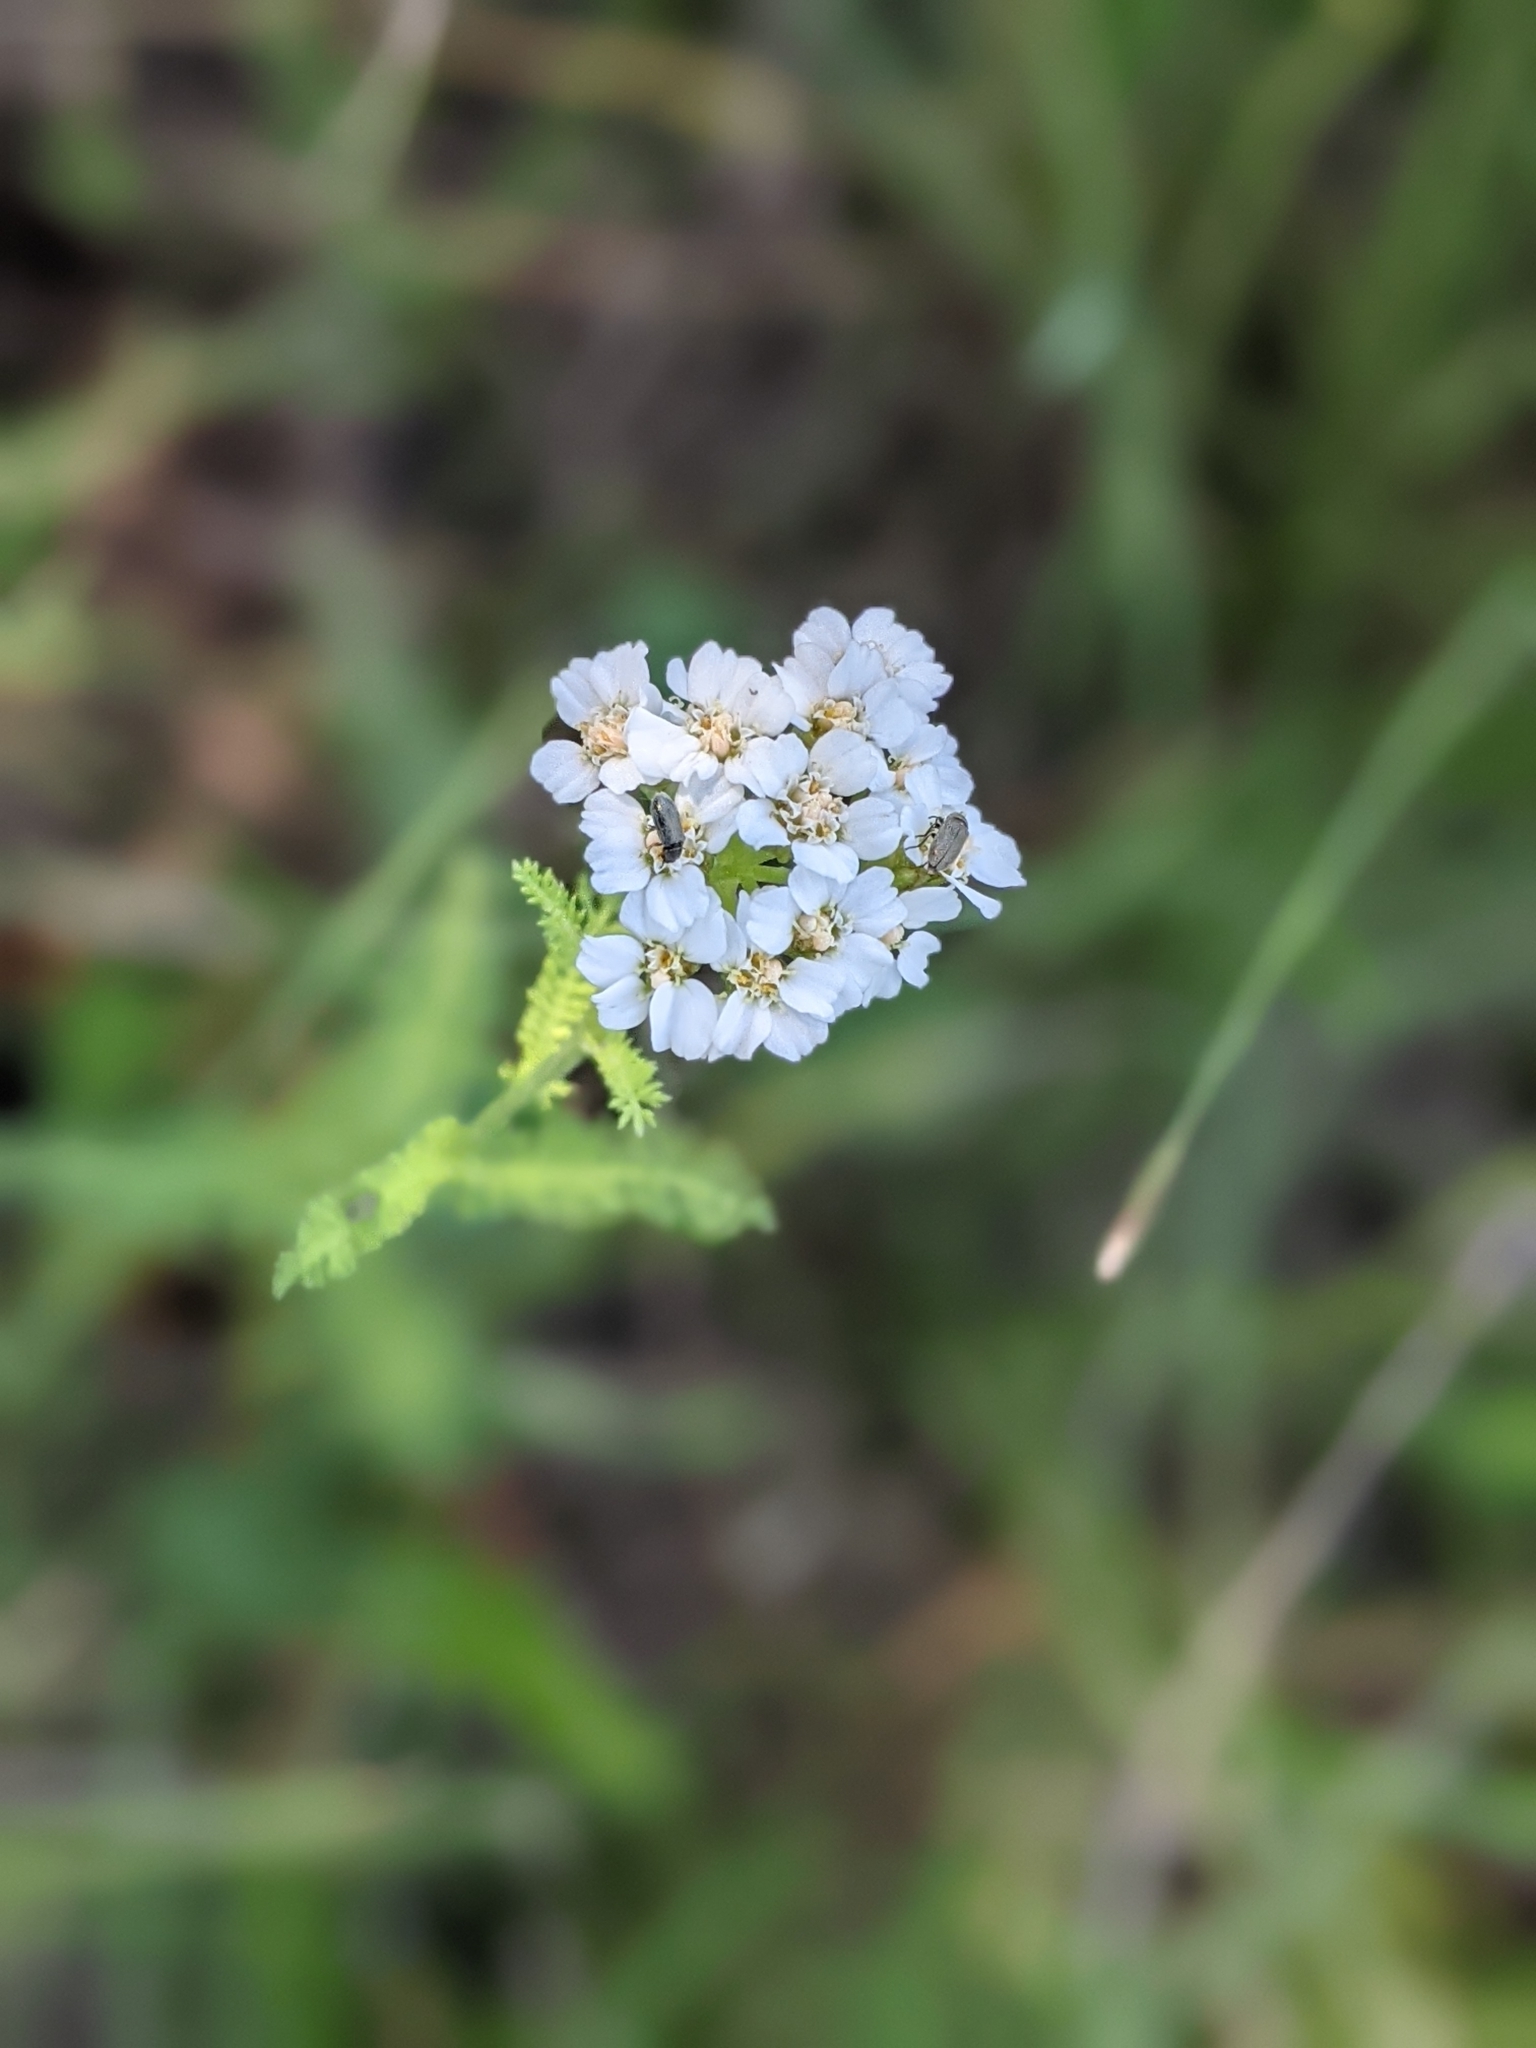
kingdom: Plantae
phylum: Tracheophyta
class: Magnoliopsida
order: Asterales
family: Asteraceae
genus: Achillea
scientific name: Achillea millefolium
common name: Yarrow
